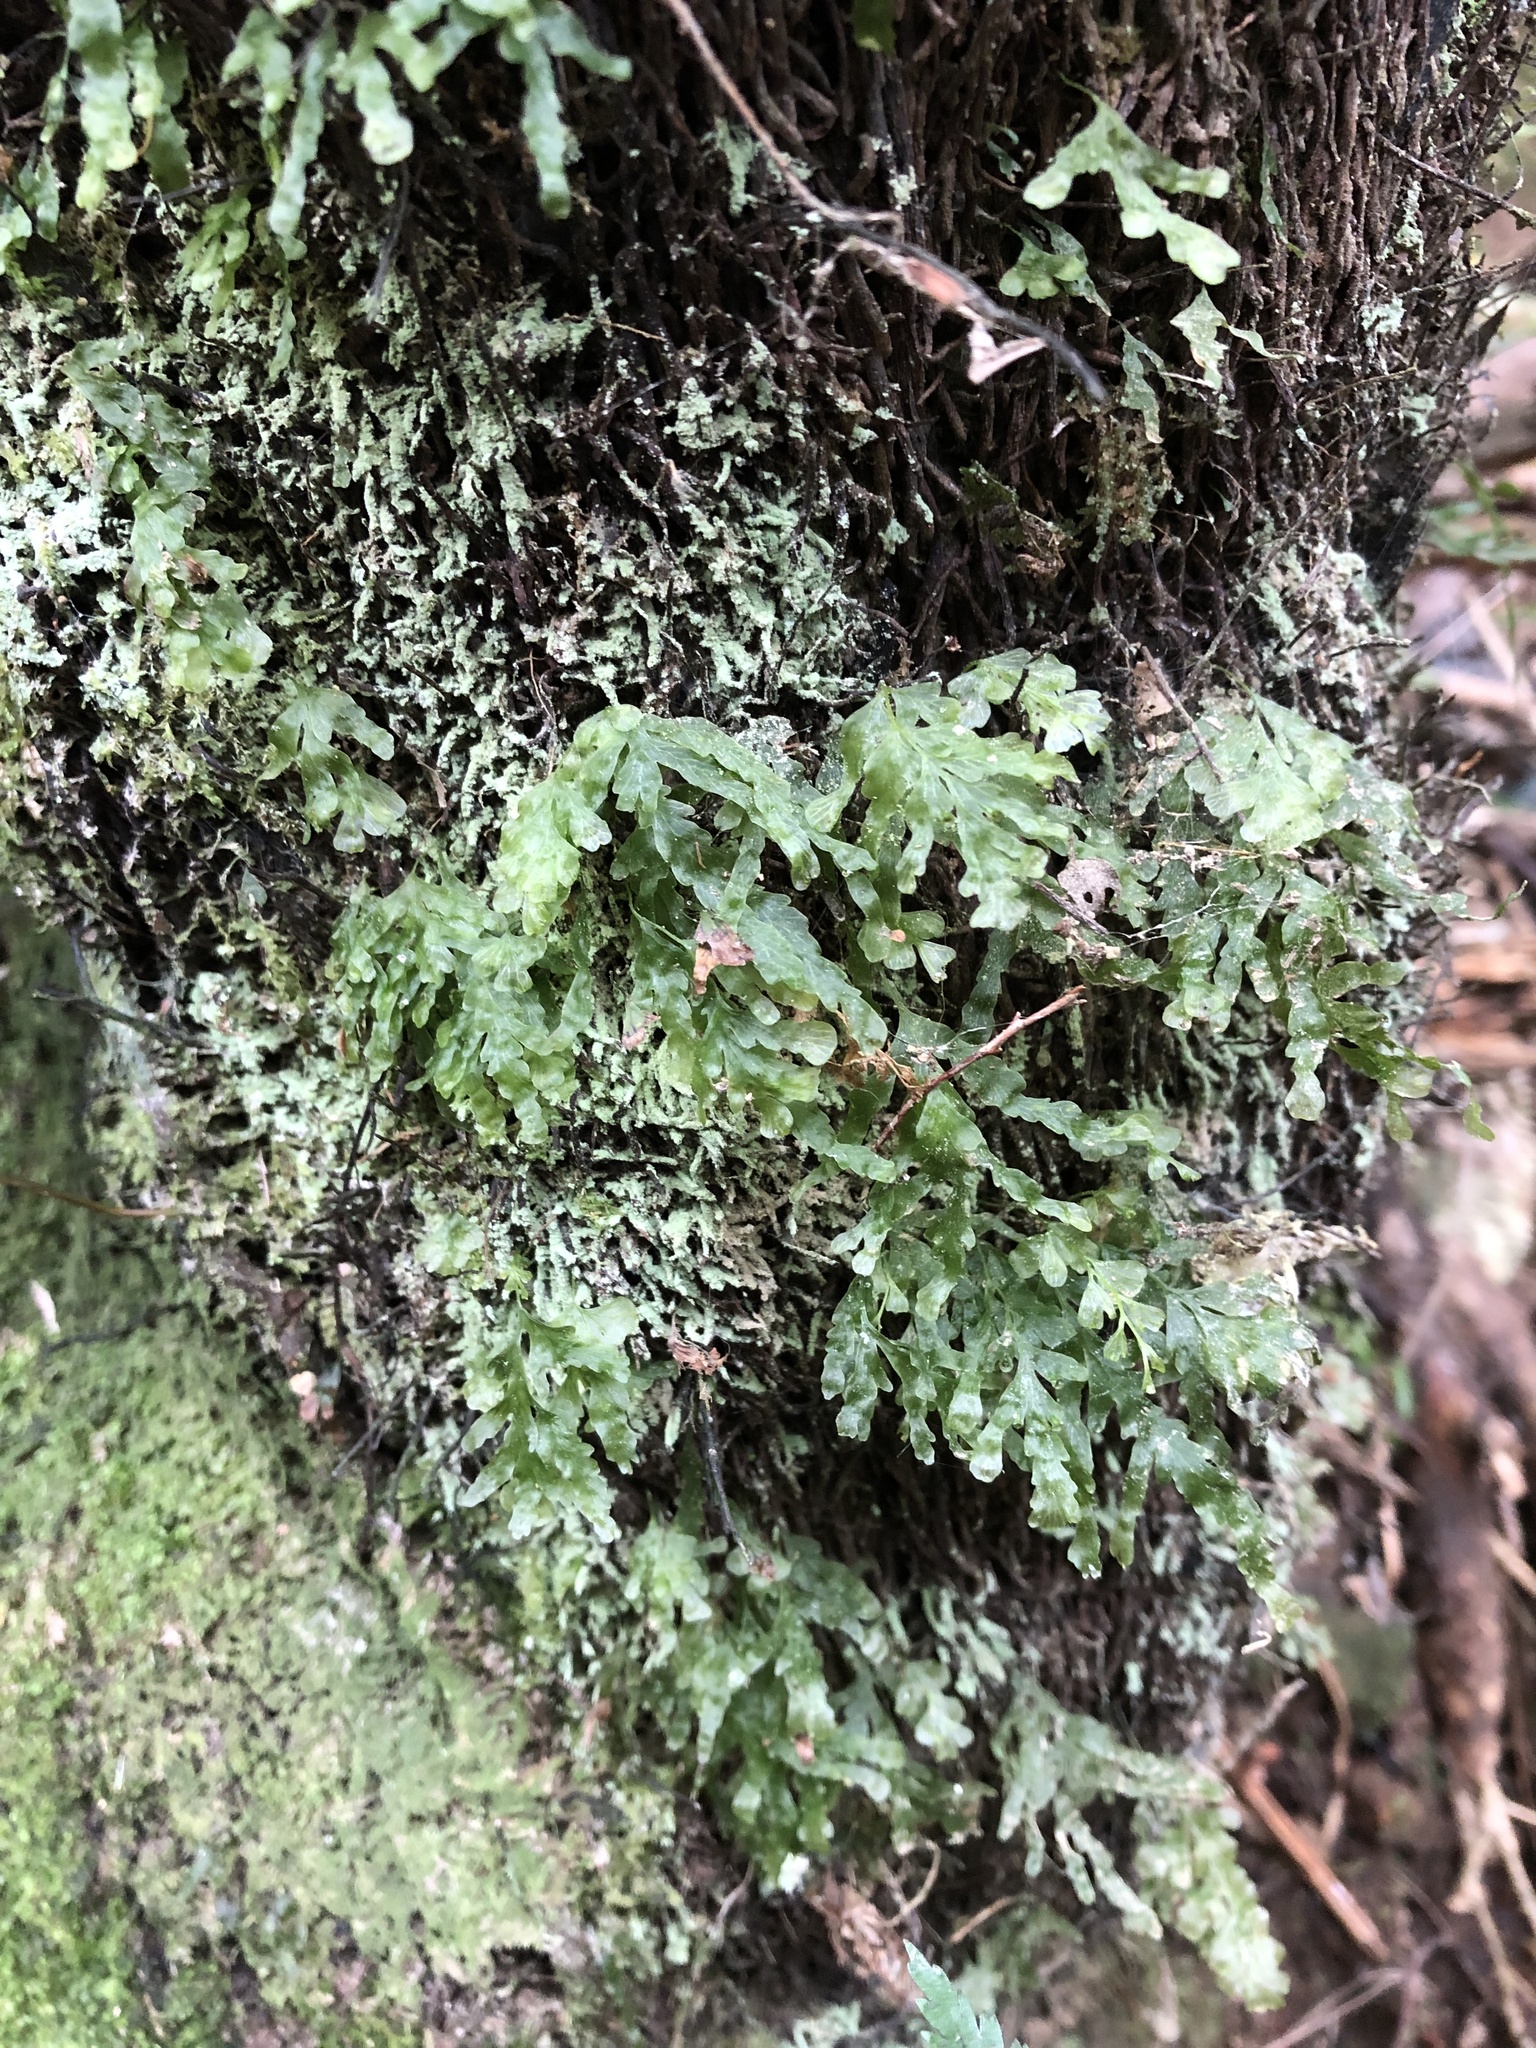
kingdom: Plantae
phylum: Tracheophyta
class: Polypodiopsida
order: Hymenophyllales
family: Hymenophyllaceae
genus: Polyphlebium
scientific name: Polyphlebium venosum
